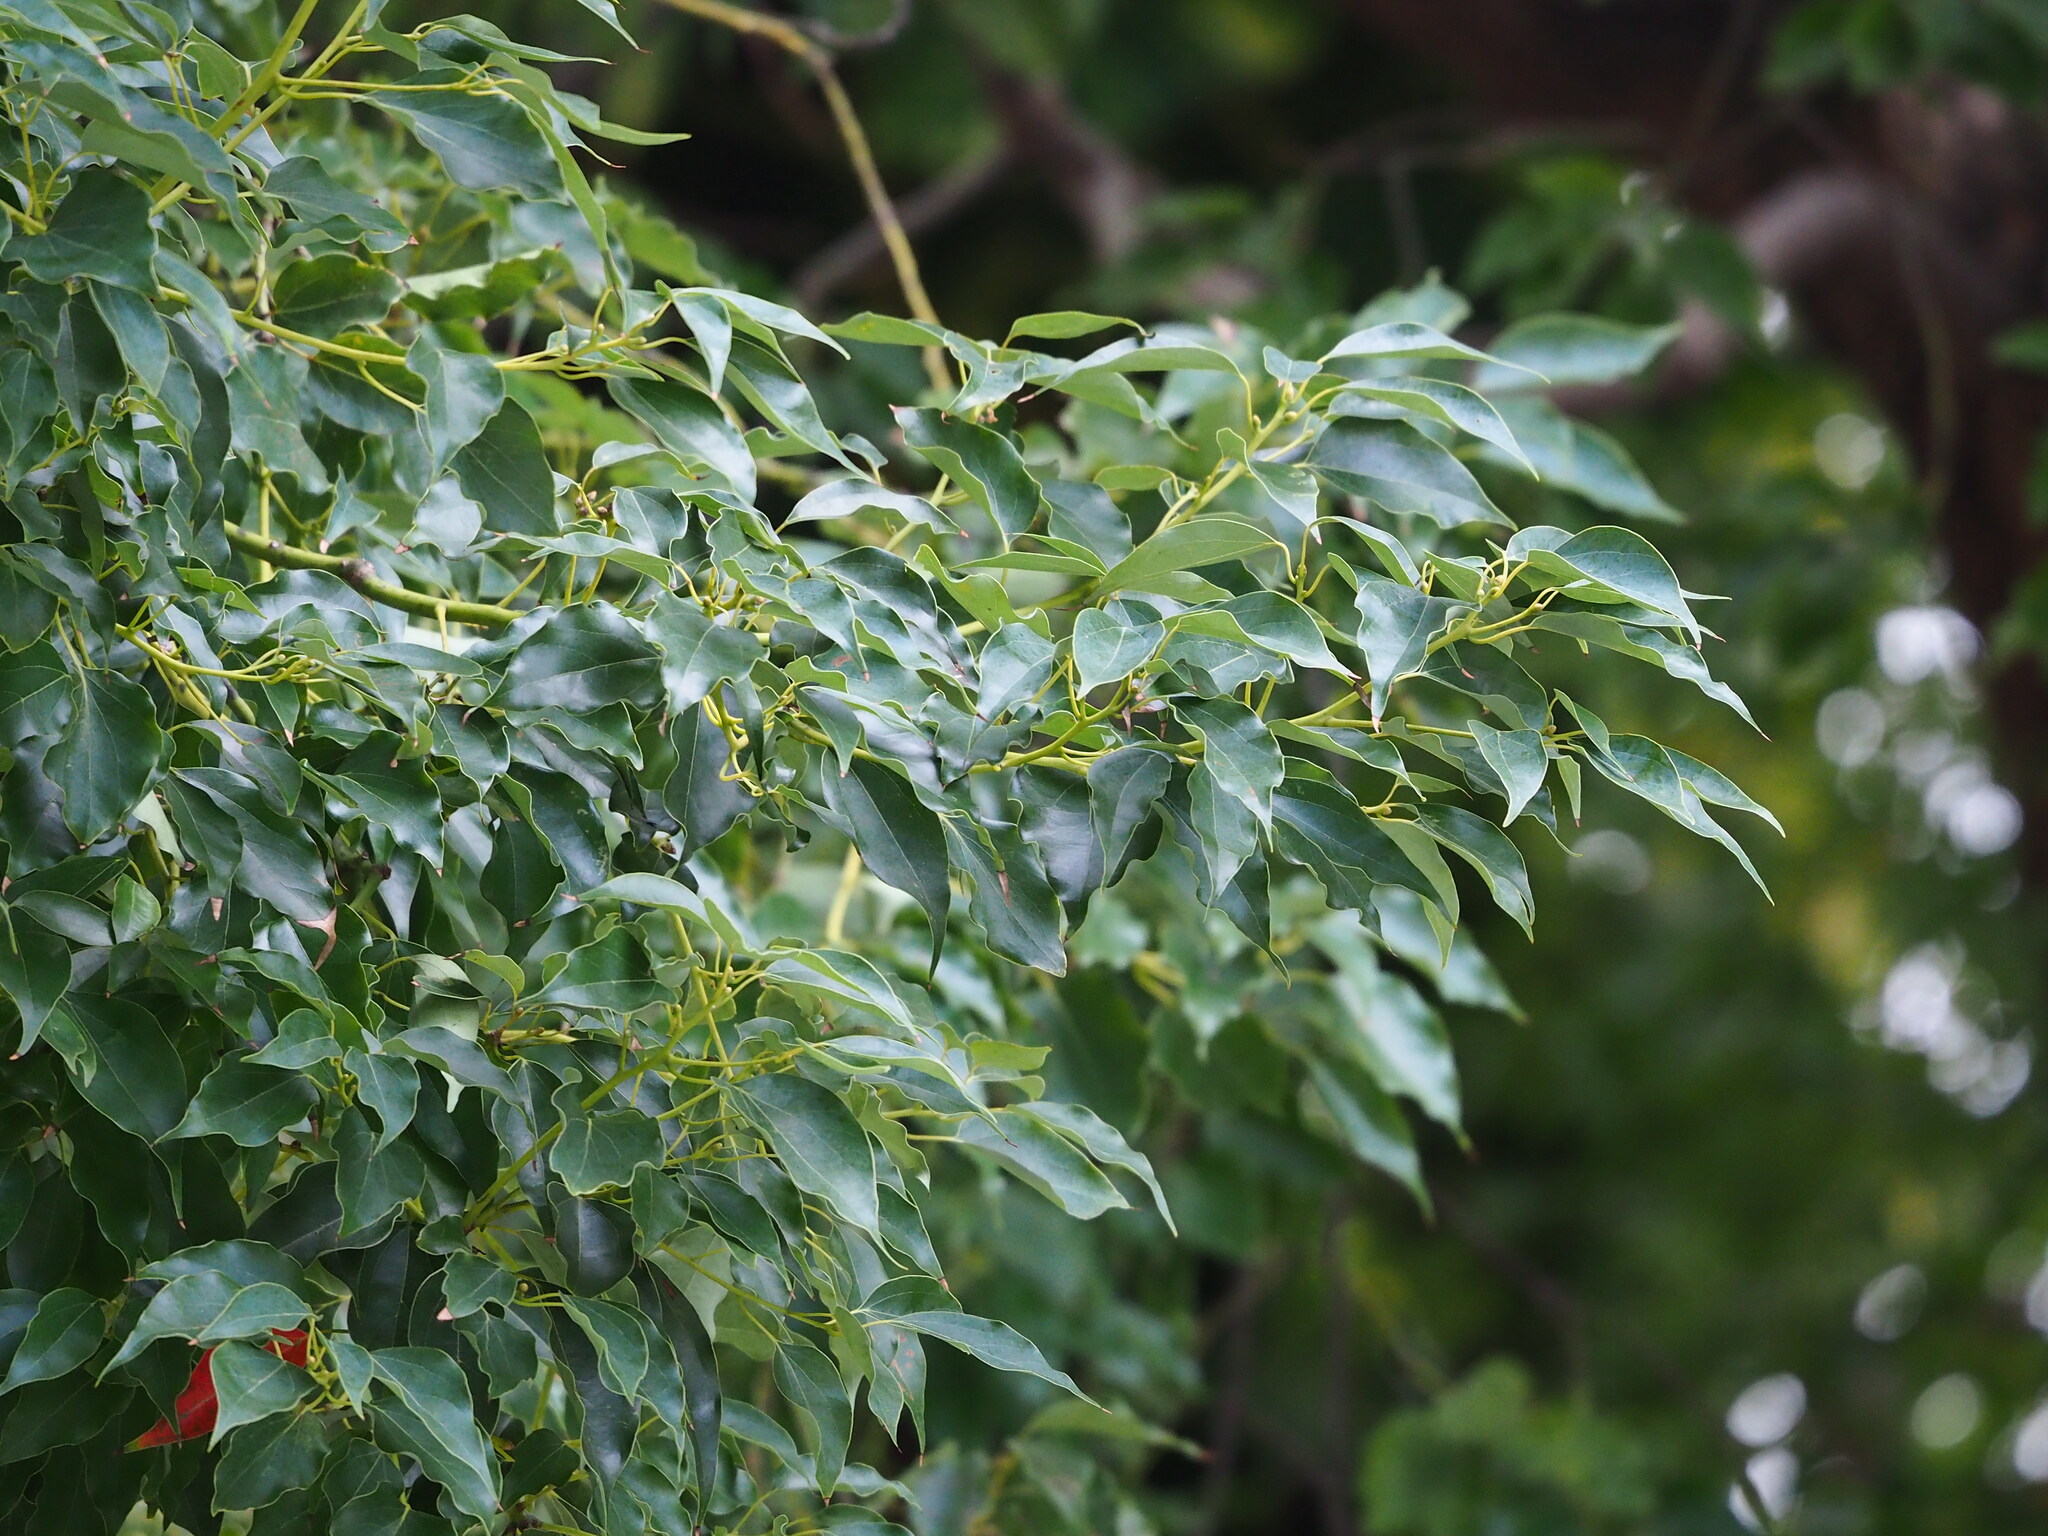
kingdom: Plantae
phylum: Tracheophyta
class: Magnoliopsida
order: Laurales
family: Lauraceae
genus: Cinnamomum
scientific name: Cinnamomum camphora
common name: Camphortree
